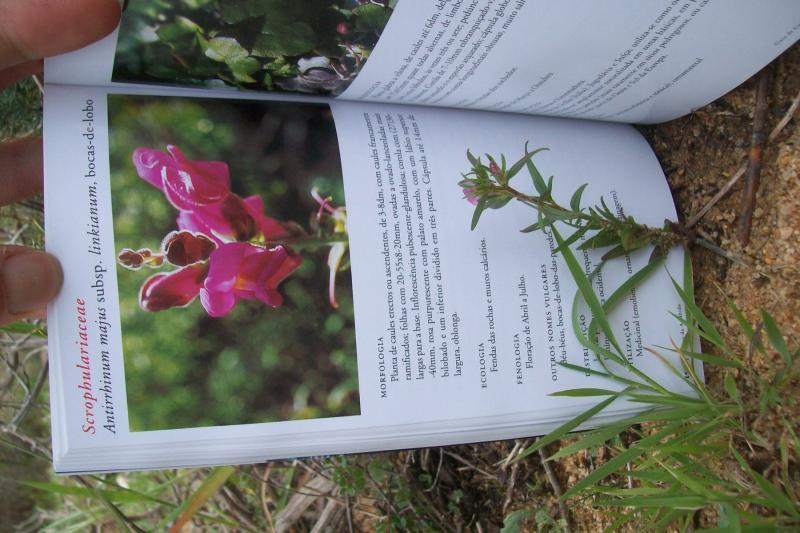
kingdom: Plantae
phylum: Tracheophyta
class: Magnoliopsida
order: Lamiales
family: Plantaginaceae
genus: Misopates
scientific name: Misopates orontium
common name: Weasel's-snout
